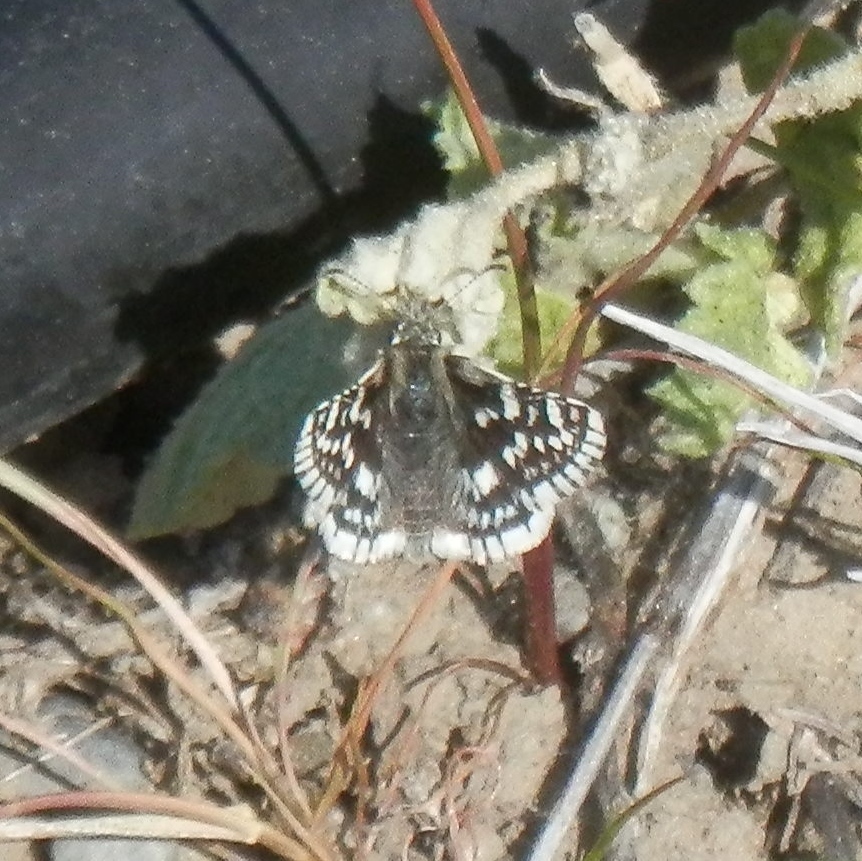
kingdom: Animalia
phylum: Arthropoda
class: Insecta
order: Lepidoptera
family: Hesperiidae
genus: Burnsius
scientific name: Burnsius communis
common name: Common checkered-skipper
